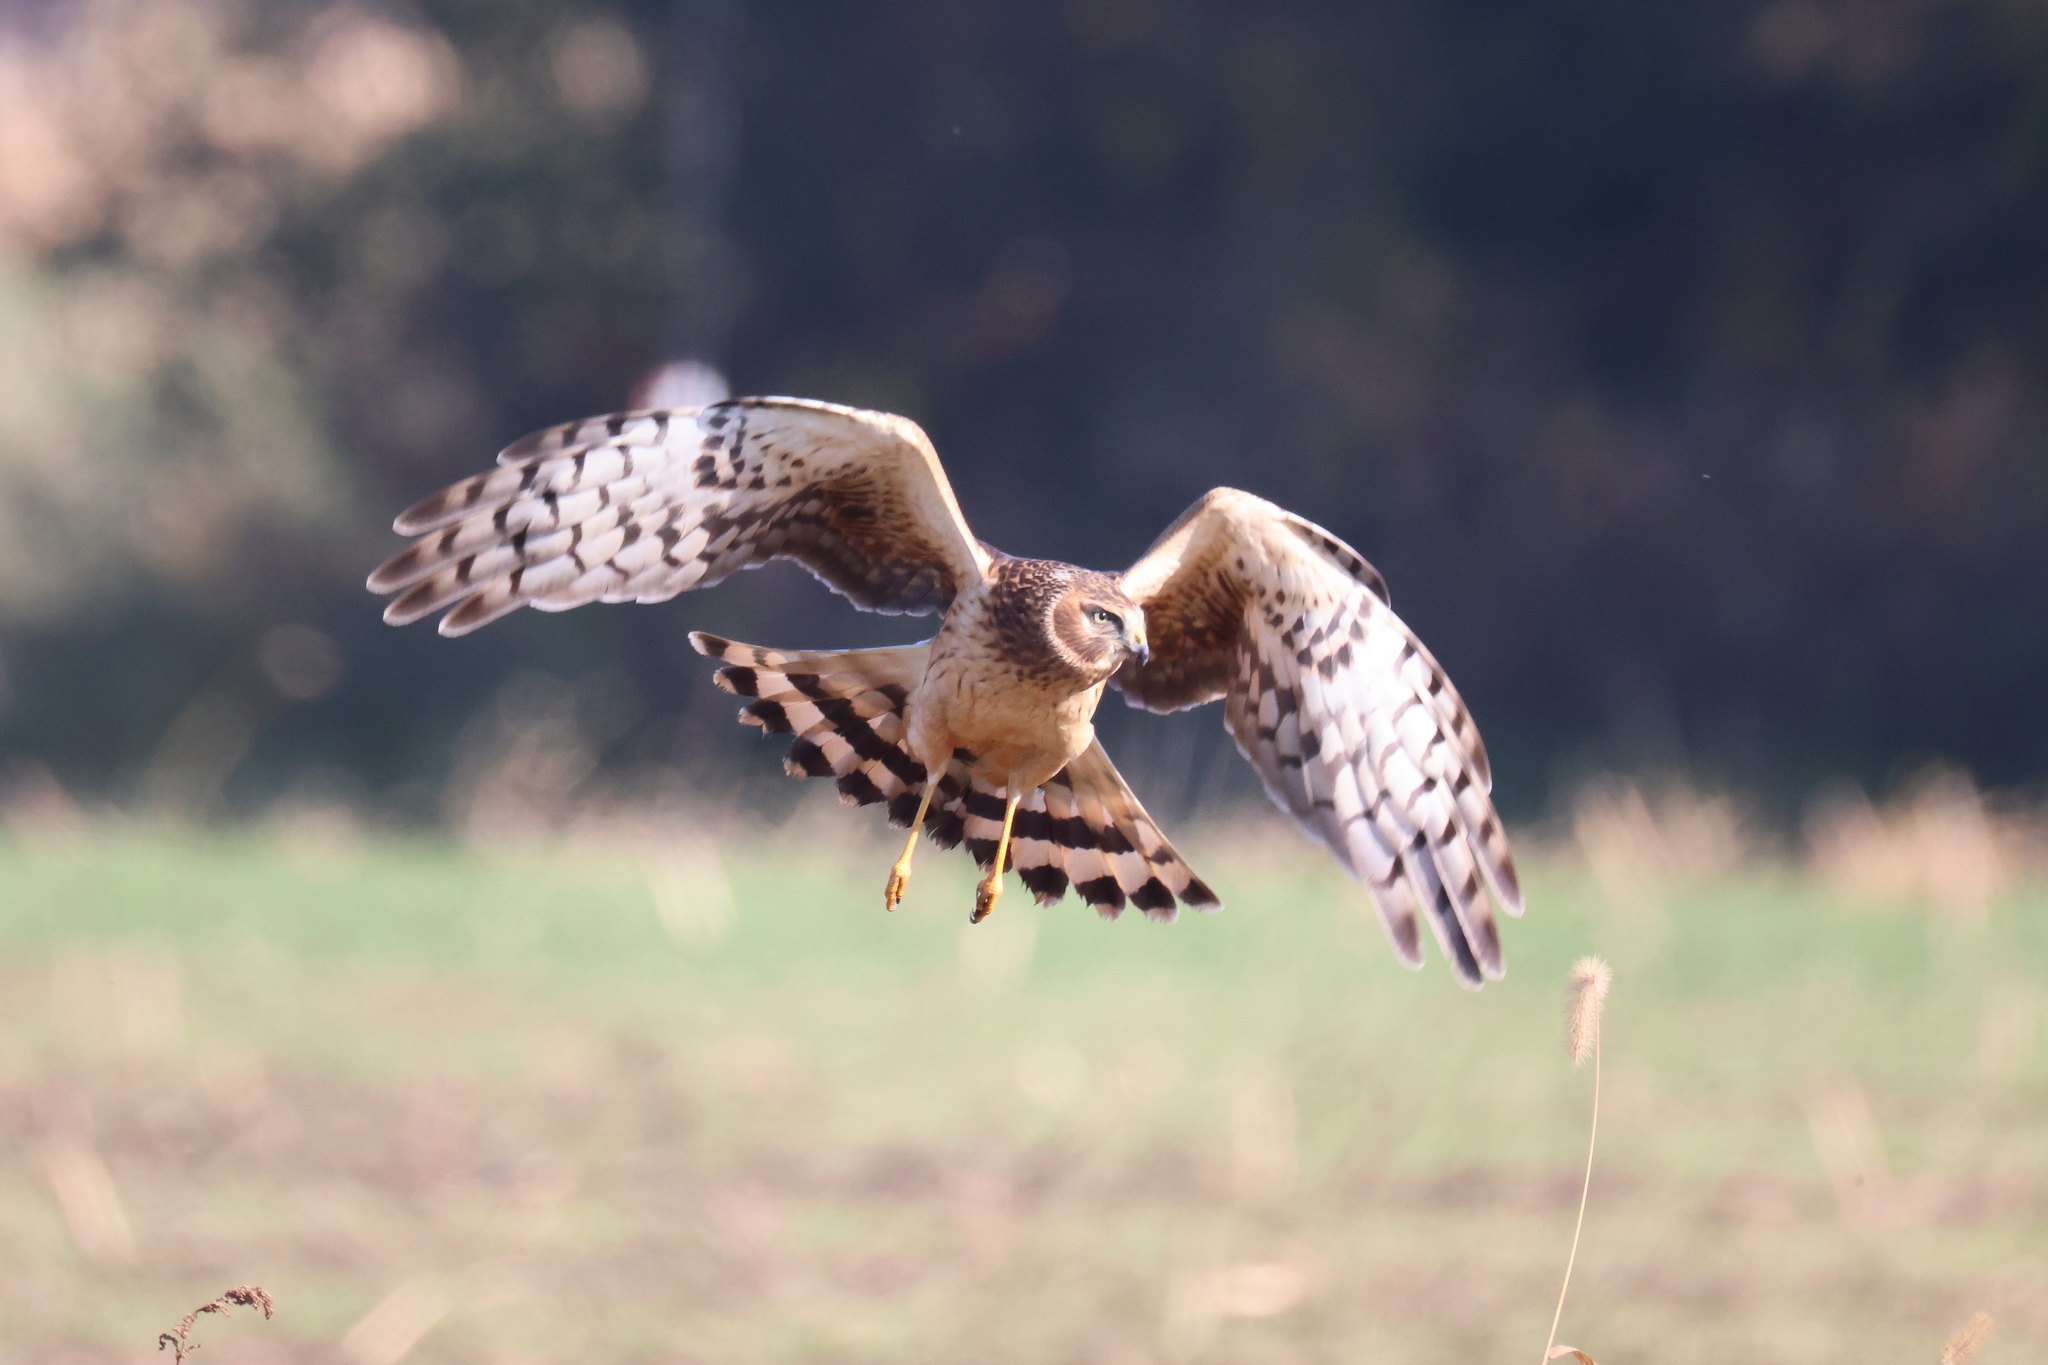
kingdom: Animalia
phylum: Chordata
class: Aves
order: Accipitriformes
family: Accipitridae
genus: Circus
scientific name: Circus cyaneus
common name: Hen harrier
